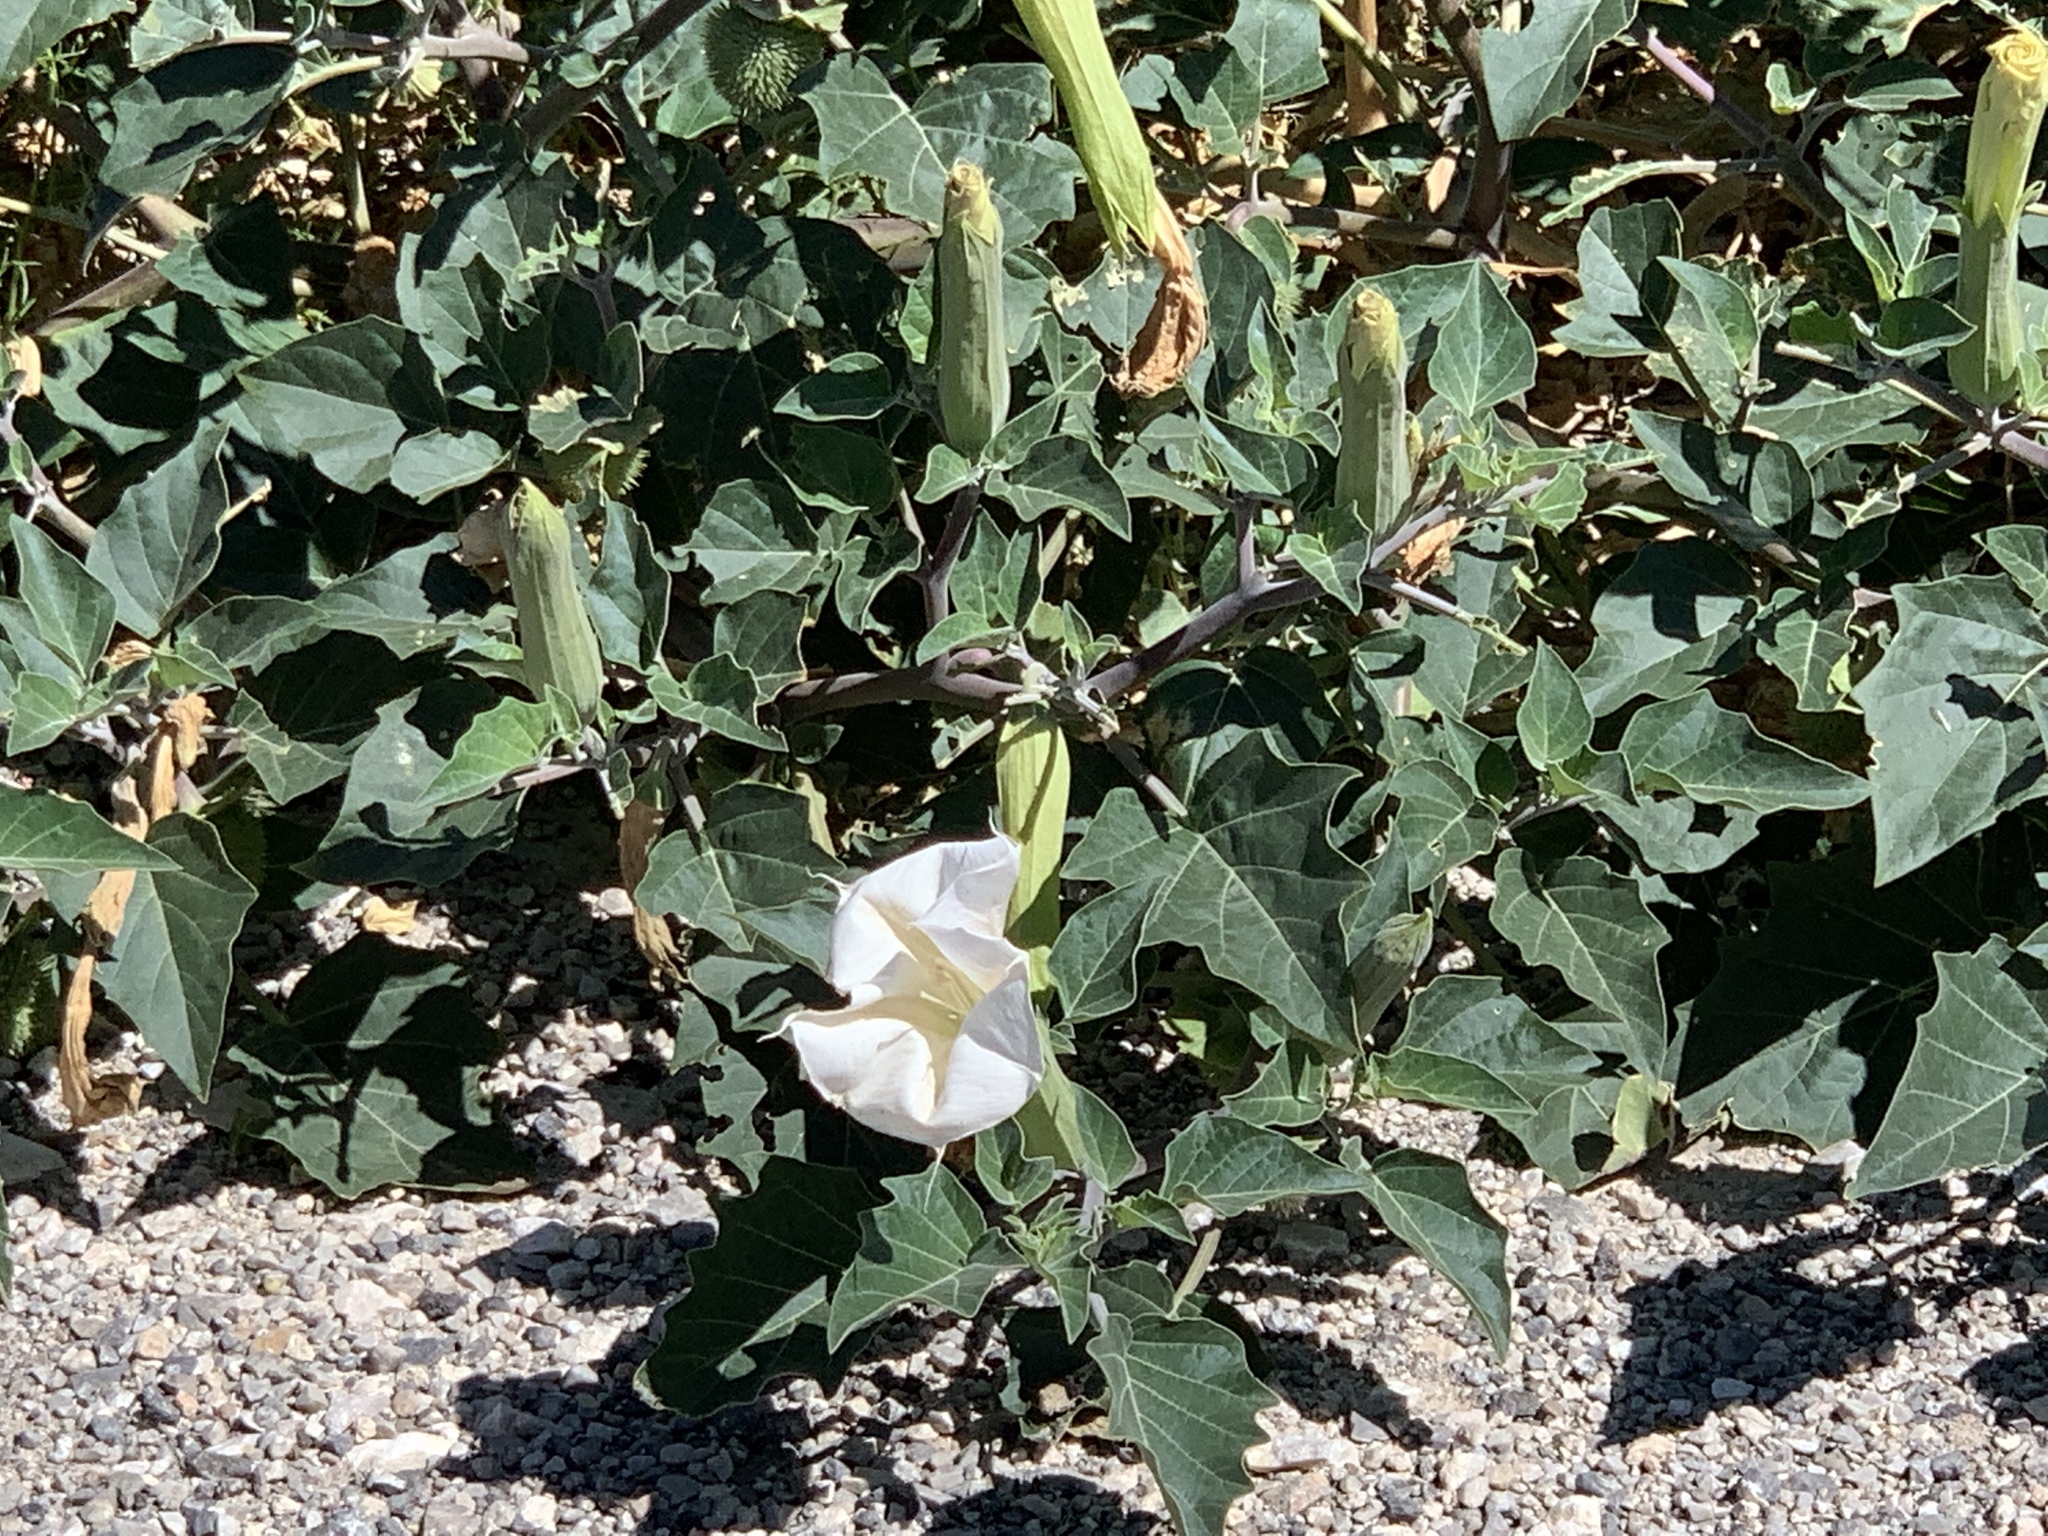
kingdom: Plantae
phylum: Tracheophyta
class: Magnoliopsida
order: Solanales
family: Solanaceae
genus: Datura
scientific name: Datura wrightii
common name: Sacred thorn-apple
